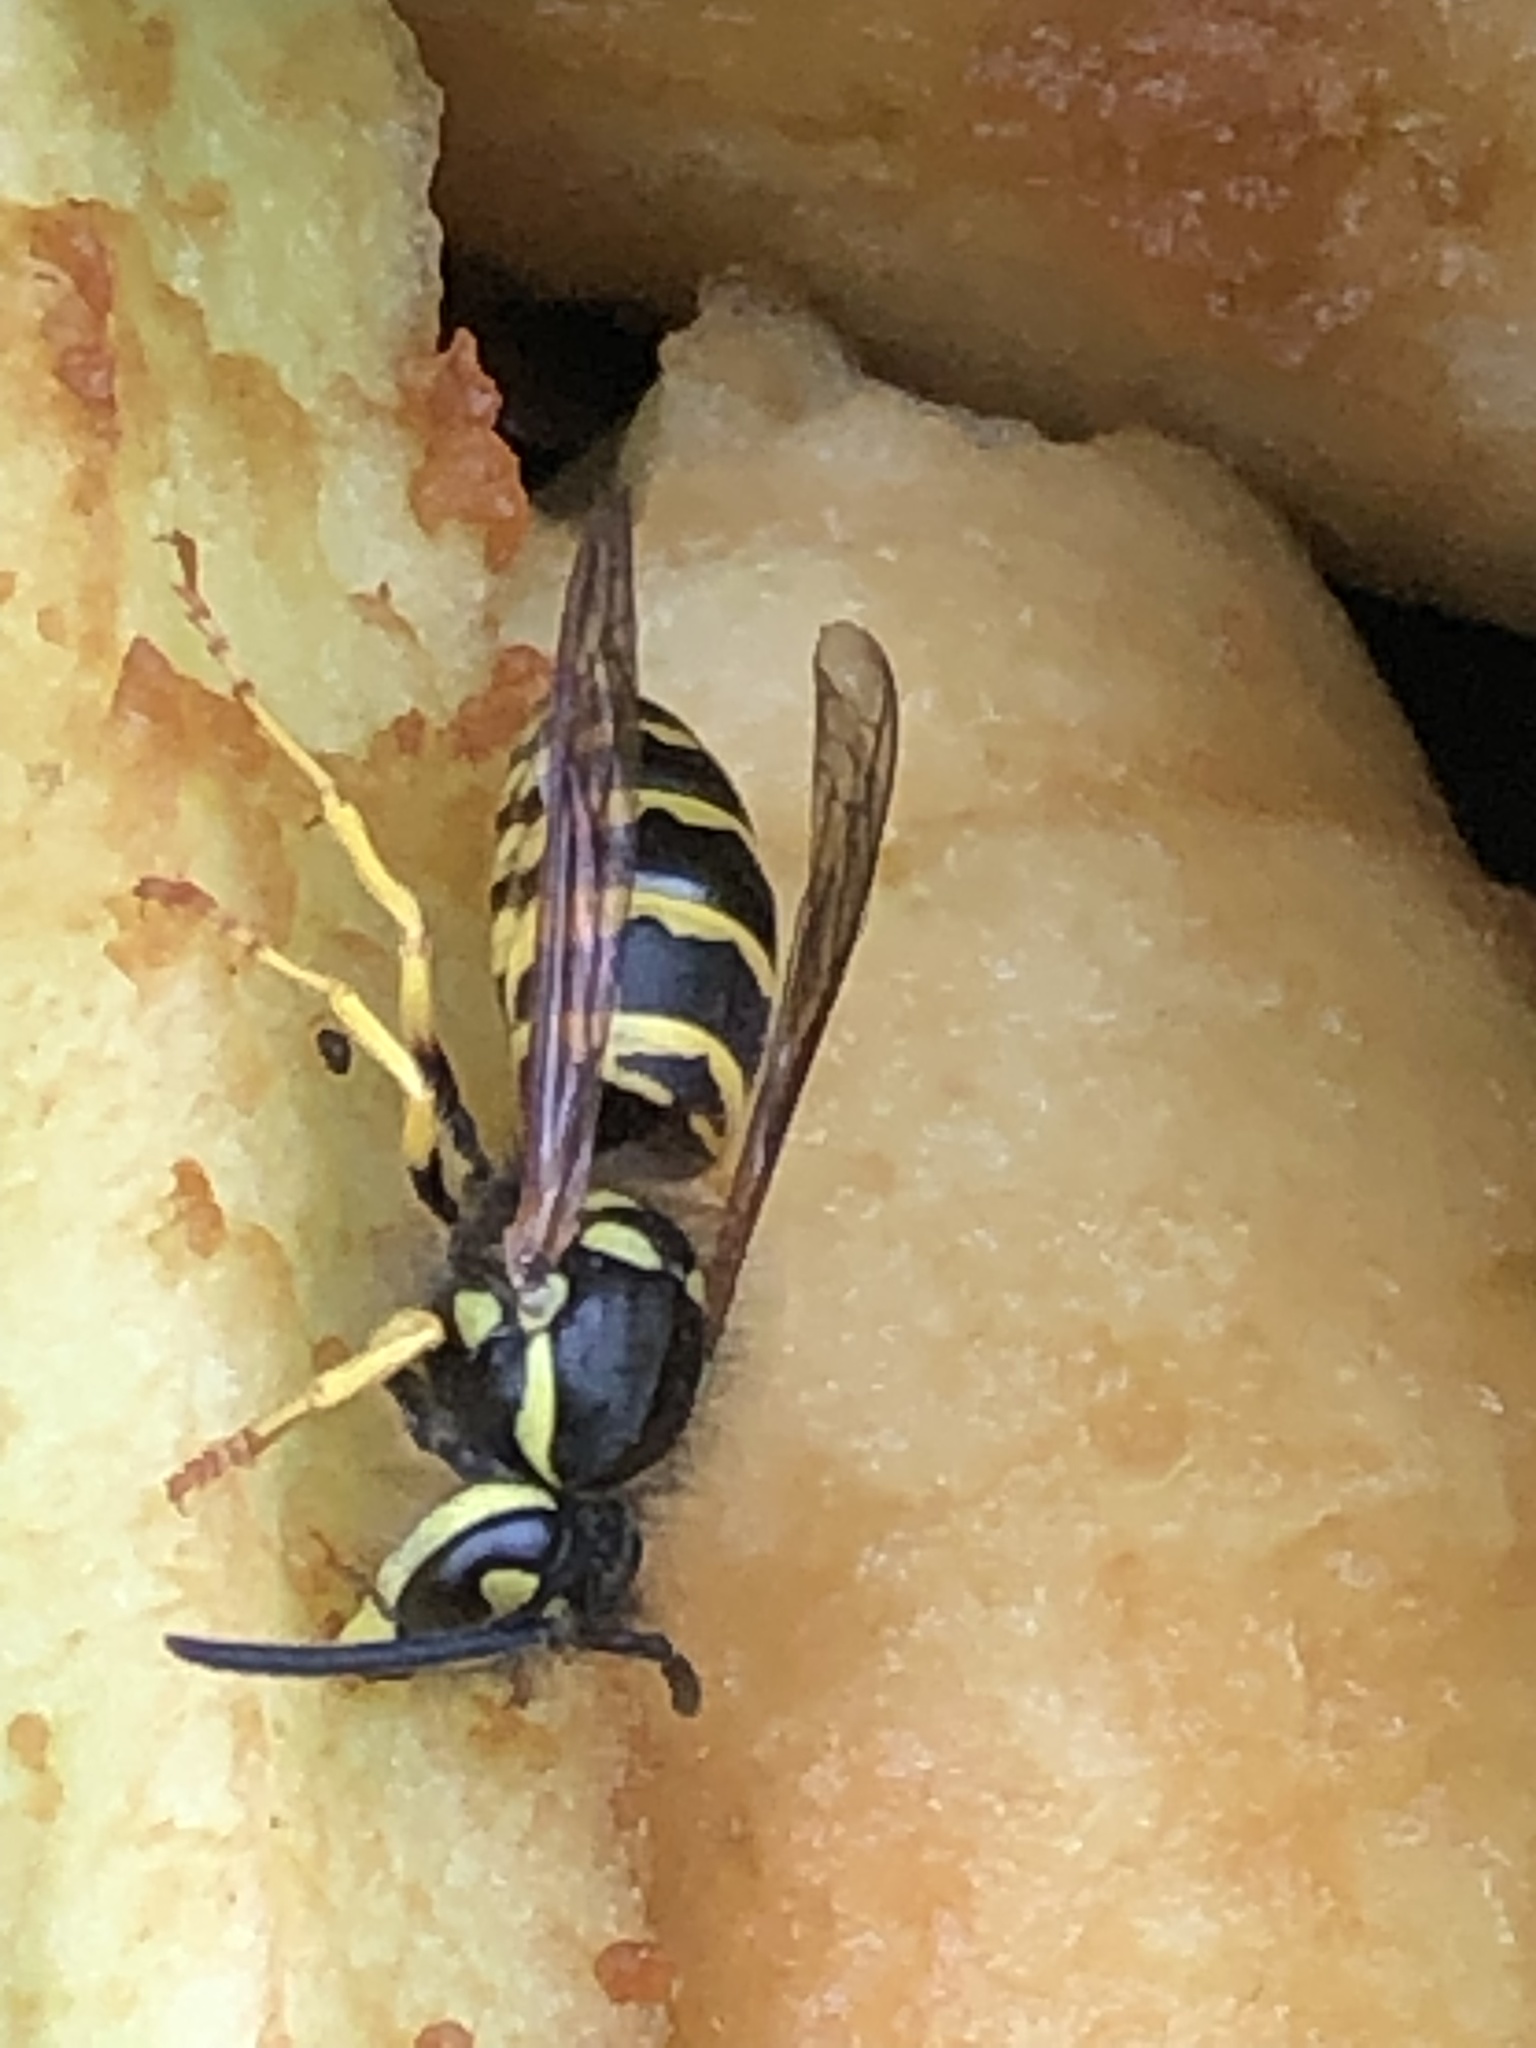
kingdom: Animalia
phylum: Arthropoda
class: Insecta
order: Hymenoptera
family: Vespidae
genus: Vespula
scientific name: Vespula maculifrons
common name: Eastern yellowjacket
